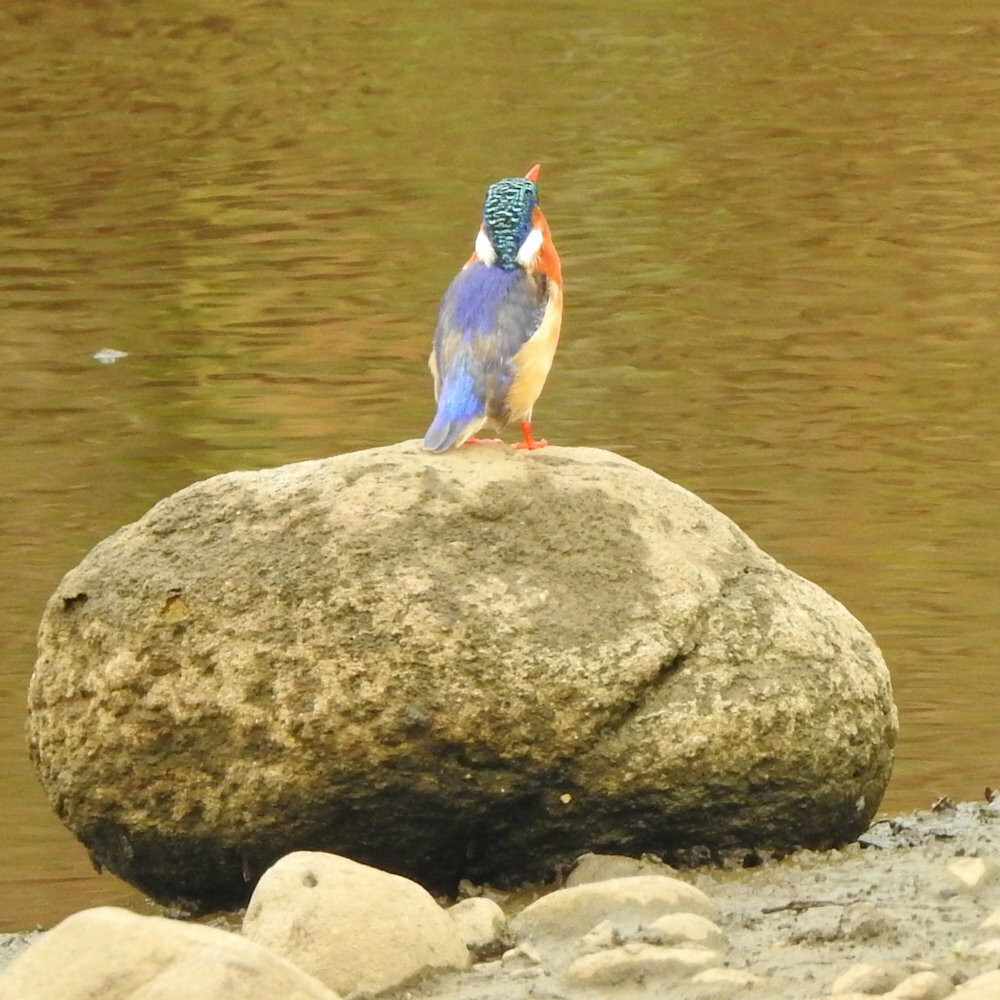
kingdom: Animalia
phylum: Chordata
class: Aves
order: Coraciiformes
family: Alcedinidae
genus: Corythornis
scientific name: Corythornis cristatus
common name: Malachite kingfisher
